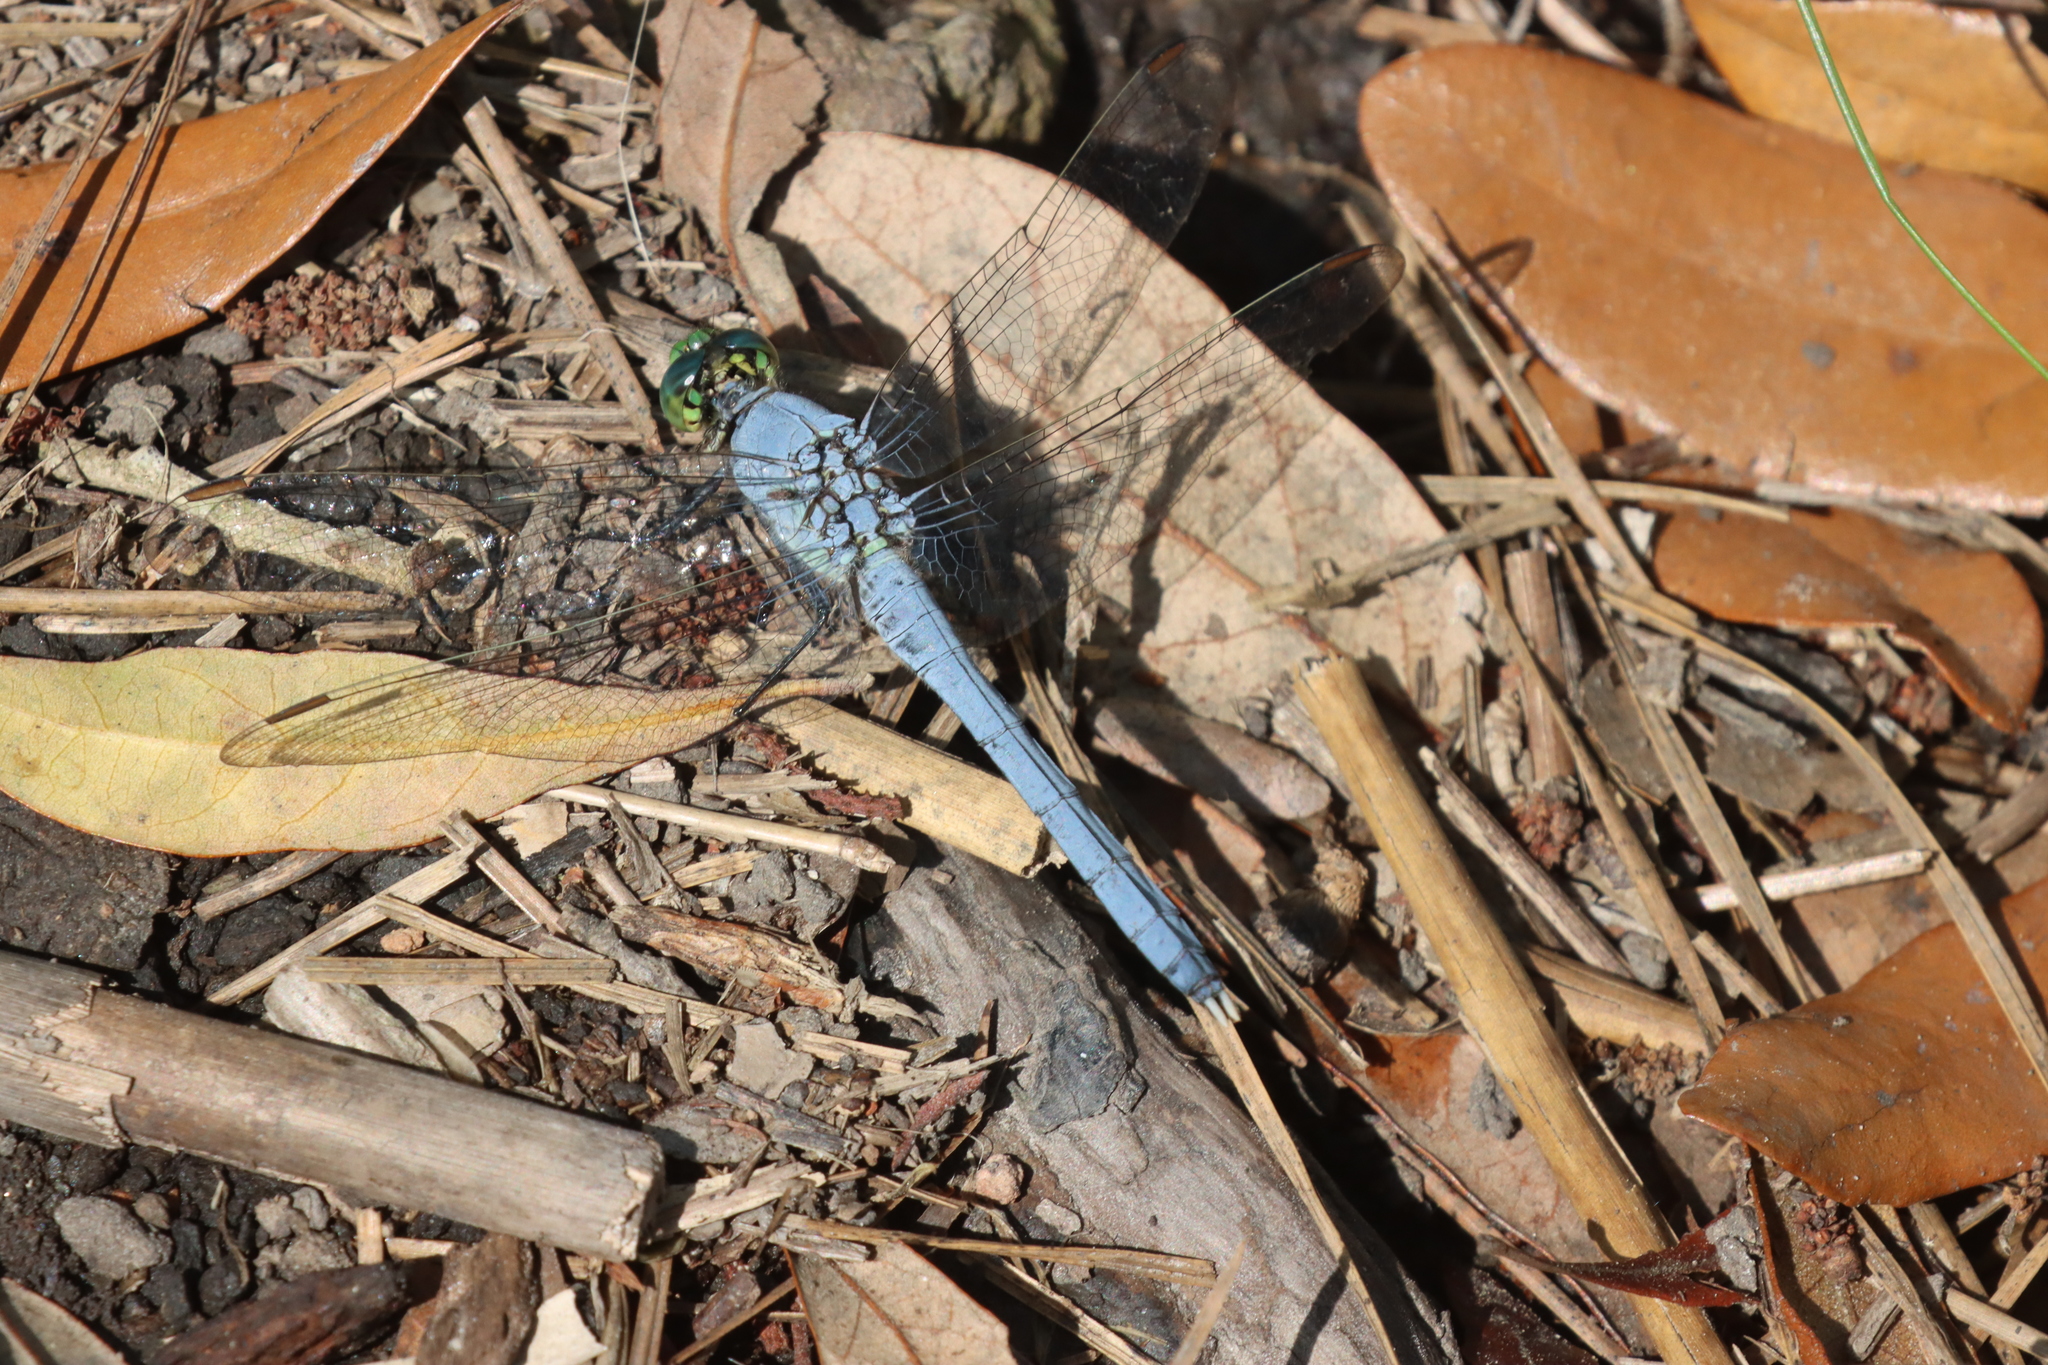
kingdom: Animalia
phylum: Arthropoda
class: Insecta
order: Odonata
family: Libellulidae
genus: Erythemis
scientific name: Erythemis simplicicollis
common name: Eastern pondhawk
